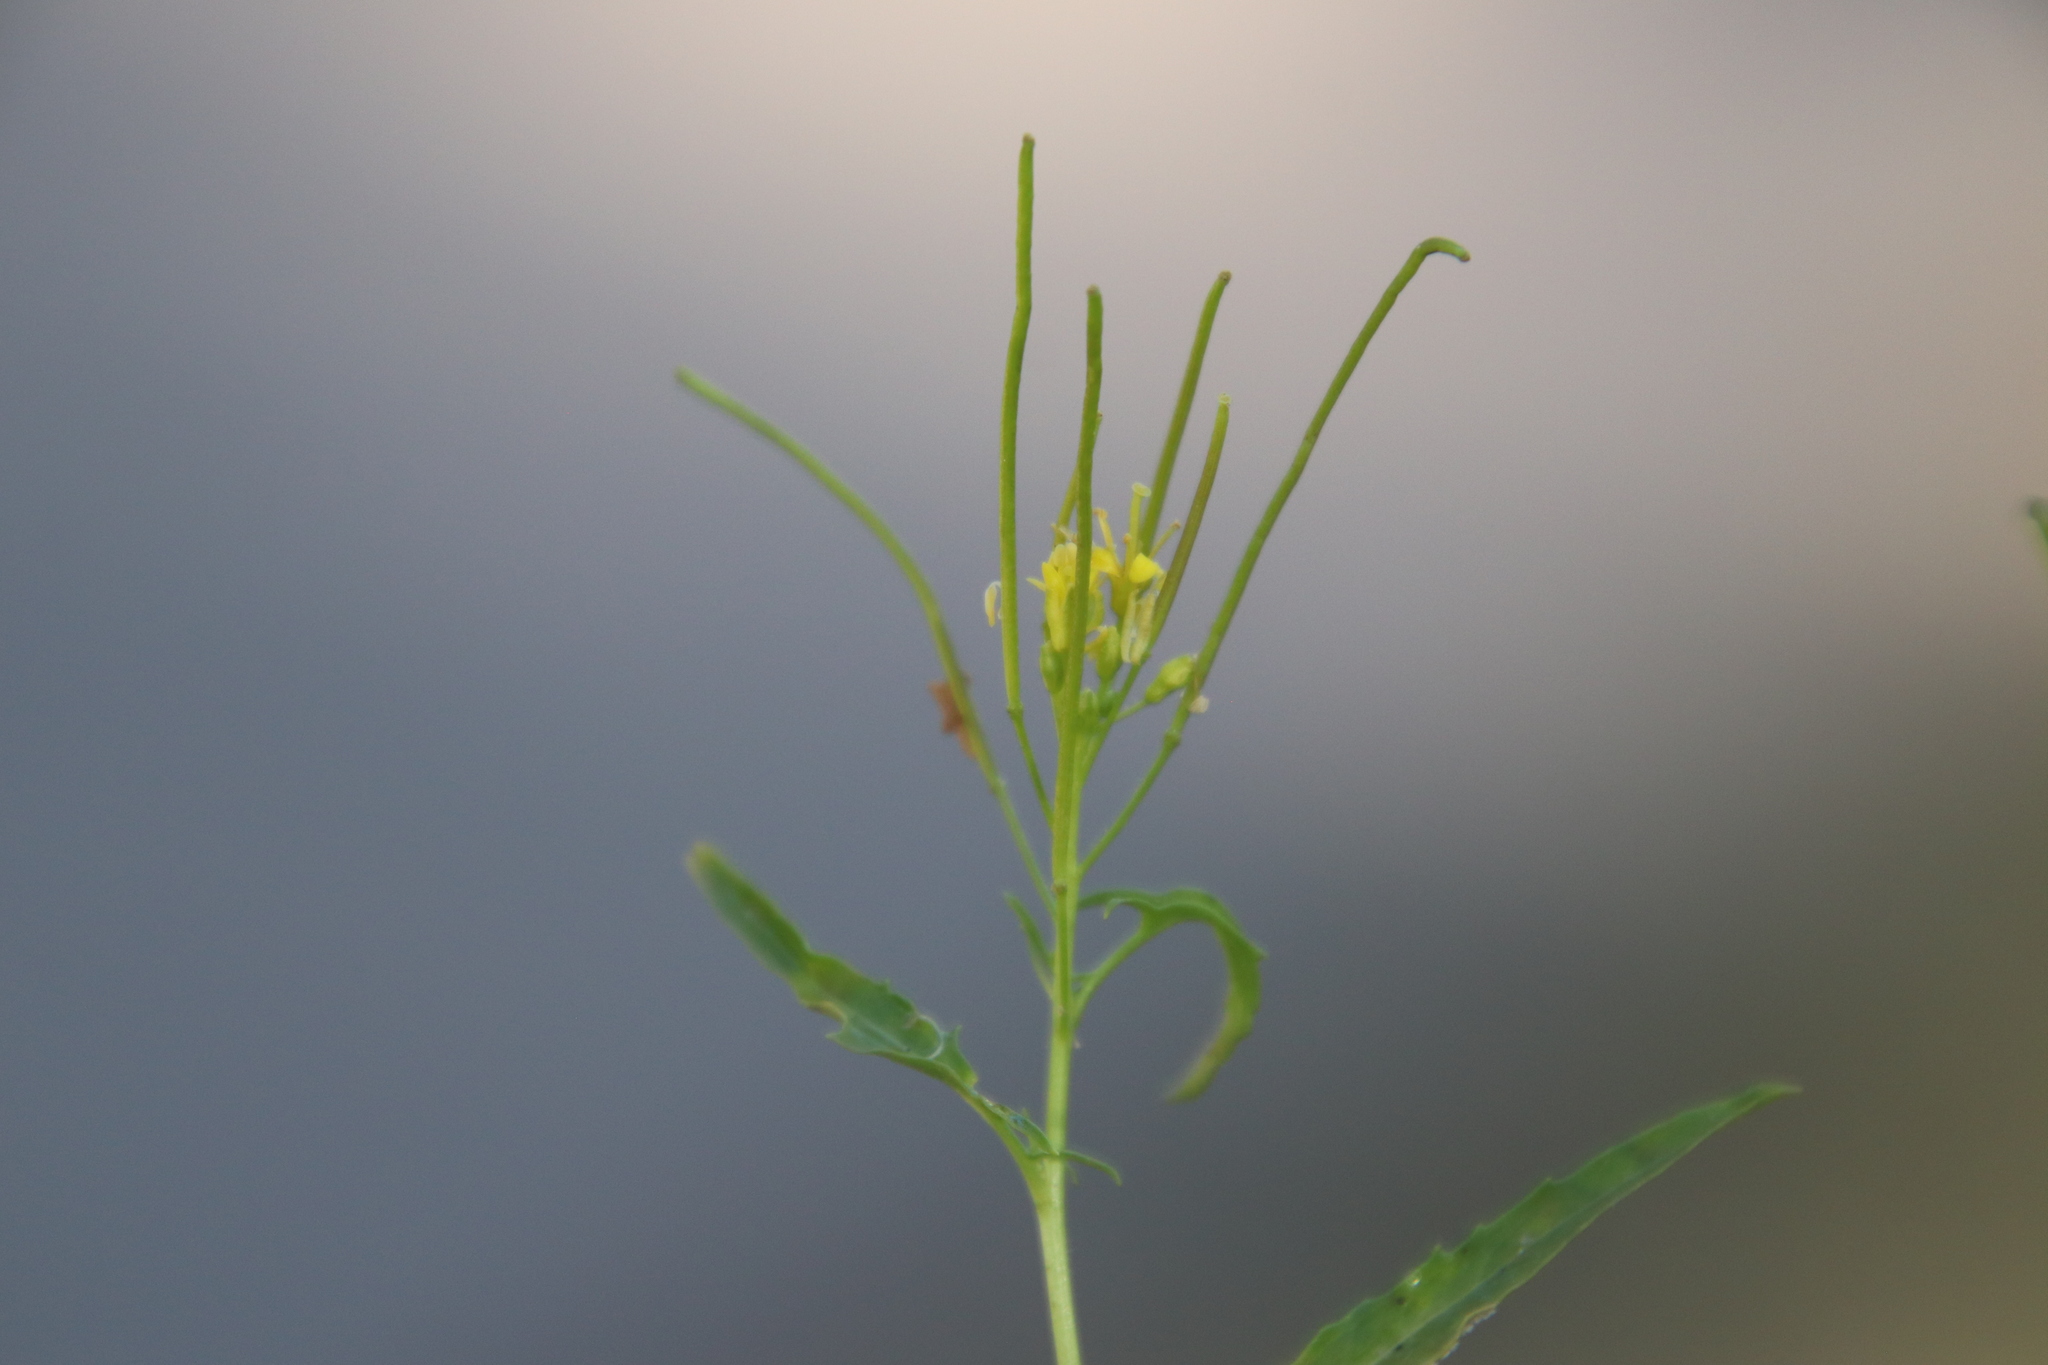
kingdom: Plantae
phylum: Tracheophyta
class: Magnoliopsida
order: Brassicales
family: Brassicaceae
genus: Sisymbrium
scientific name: Sisymbrium irio
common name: London rocket
